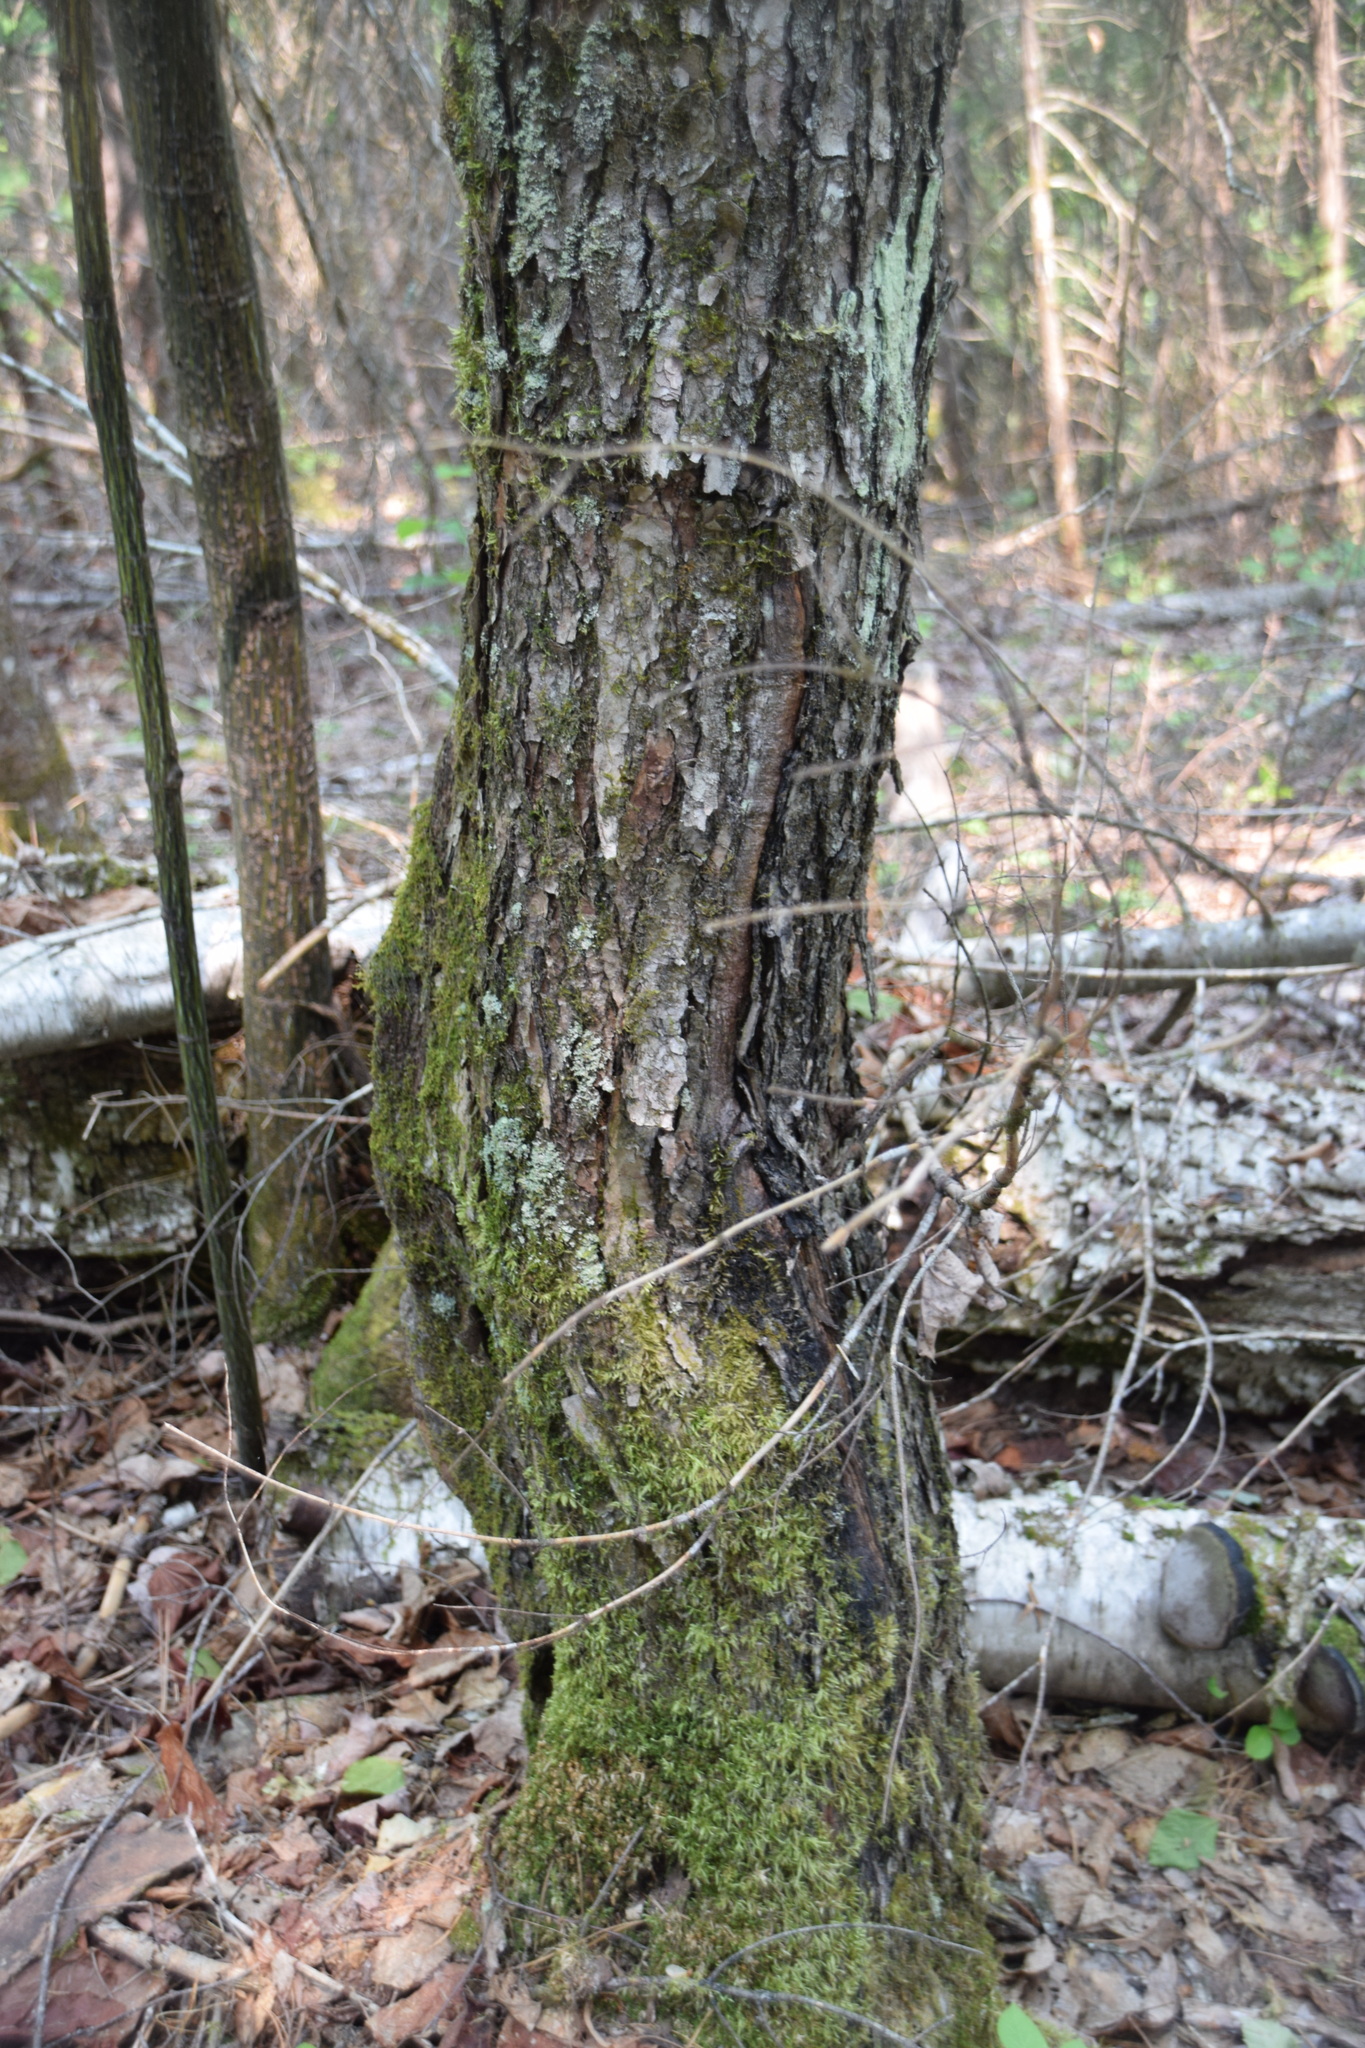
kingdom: Plantae
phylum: Tracheophyta
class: Magnoliopsida
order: Sapindales
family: Sapindaceae
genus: Acer
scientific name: Acer rubrum
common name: Red maple
